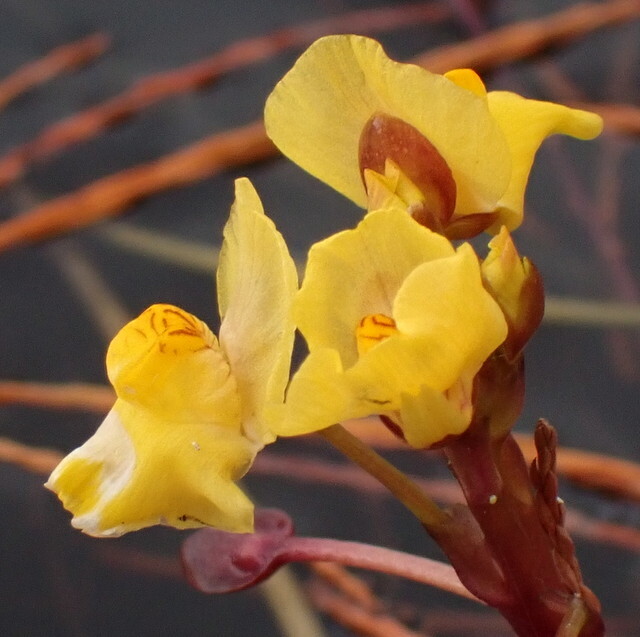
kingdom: Plantae
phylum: Tracheophyta
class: Magnoliopsida
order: Lamiales
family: Lentibulariaceae
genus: Utricularia
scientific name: Utricularia foliosa
